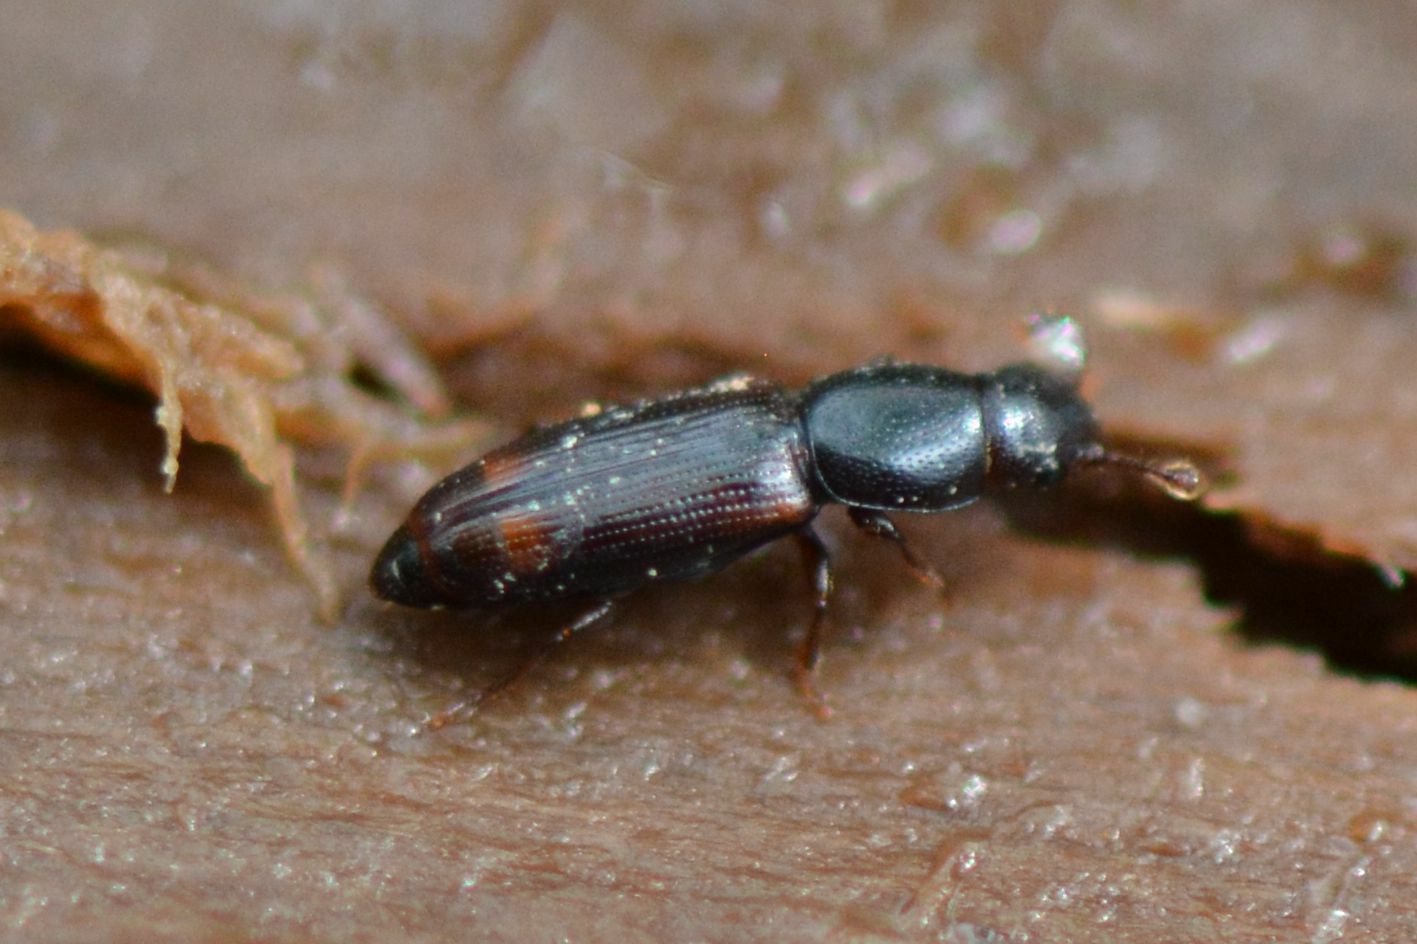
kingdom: Animalia
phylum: Arthropoda
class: Insecta
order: Coleoptera
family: Monotomidae
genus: Rhizophagus
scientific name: Rhizophagus bipustulatus
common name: Root-eating beetle
